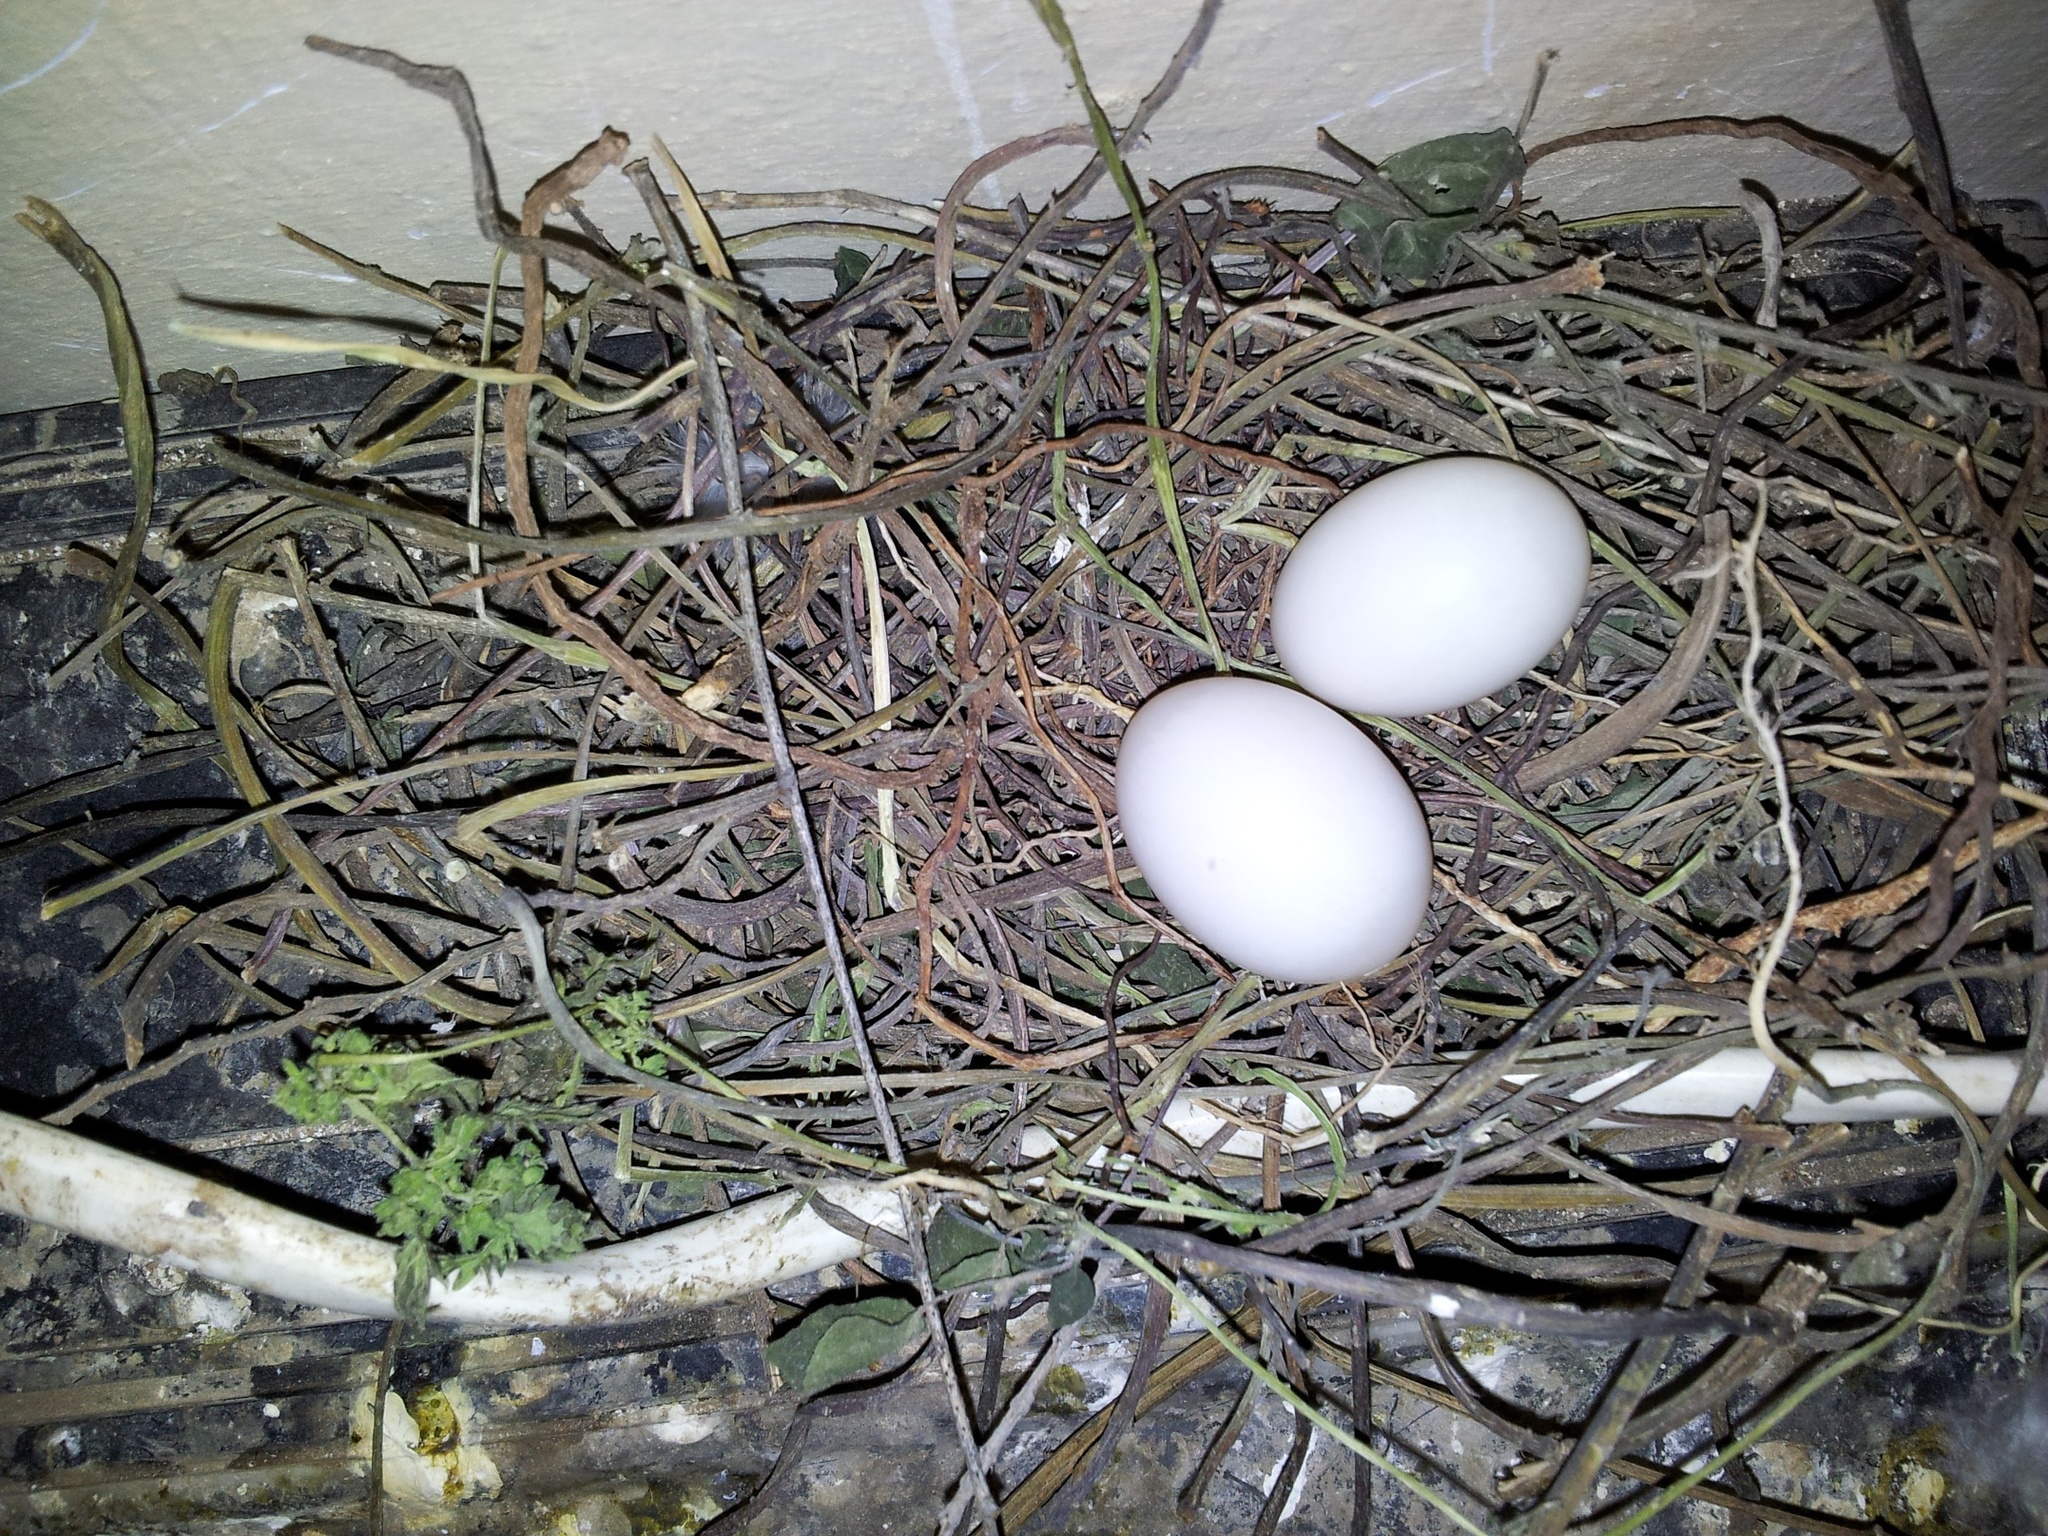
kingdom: Animalia
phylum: Chordata
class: Aves
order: Columbiformes
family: Columbidae
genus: Spilopelia
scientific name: Spilopelia senegalensis
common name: Laughing dove
